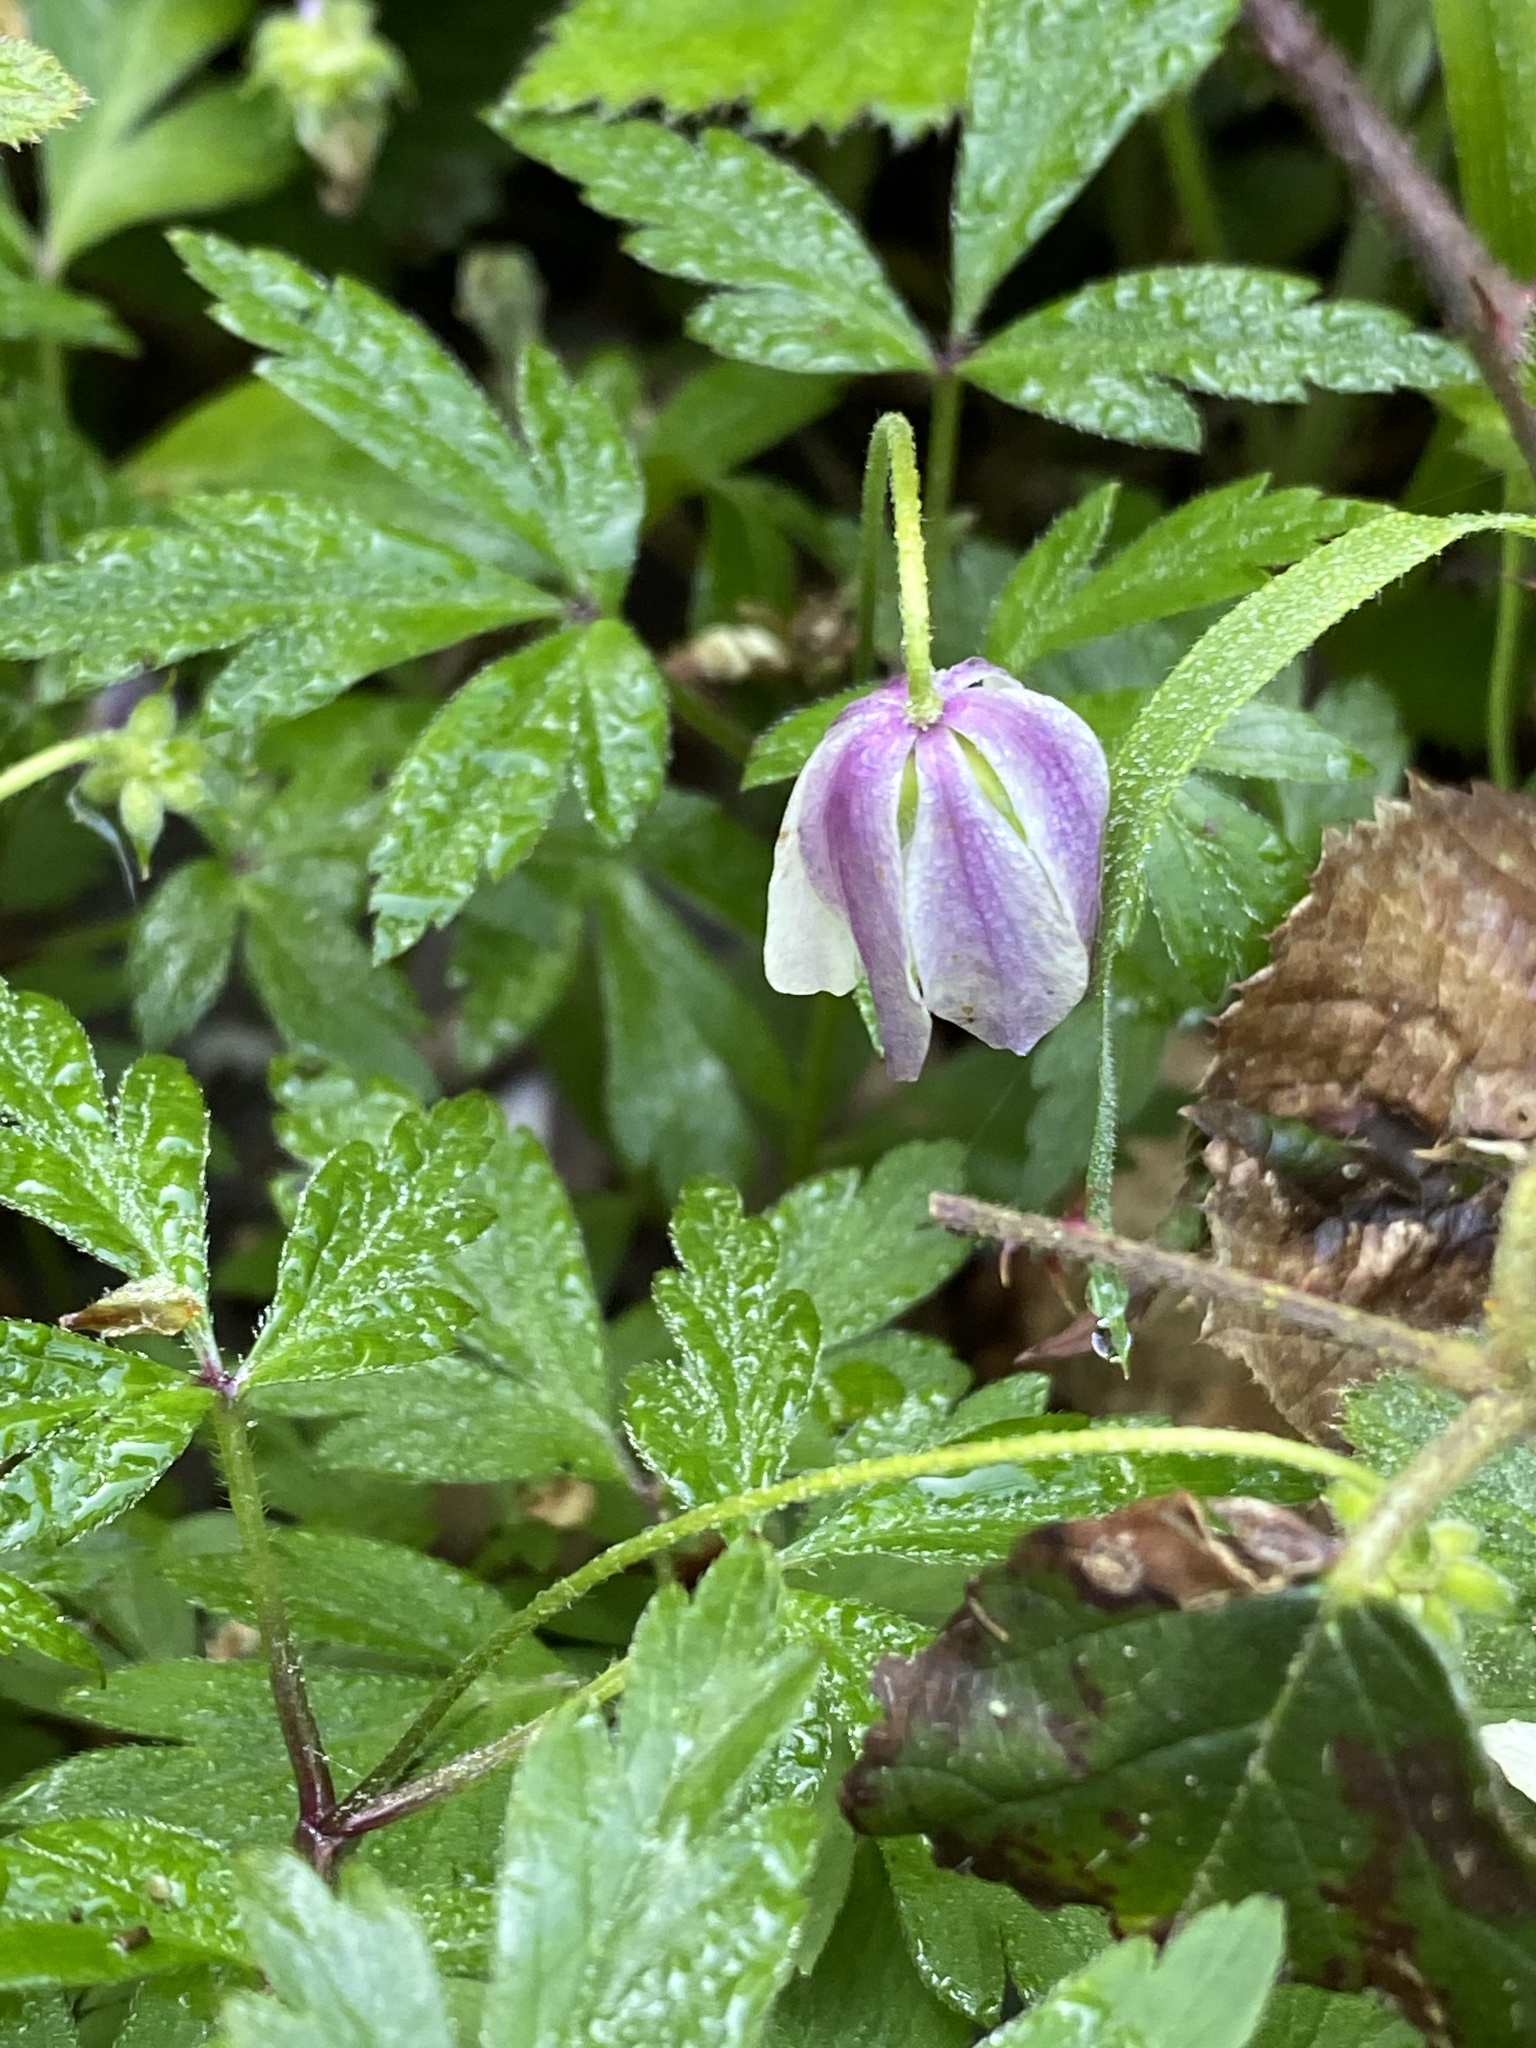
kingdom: Plantae
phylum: Tracheophyta
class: Magnoliopsida
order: Ranunculales
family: Ranunculaceae
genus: Anemone
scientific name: Anemone nemorosa
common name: Wood anemone
